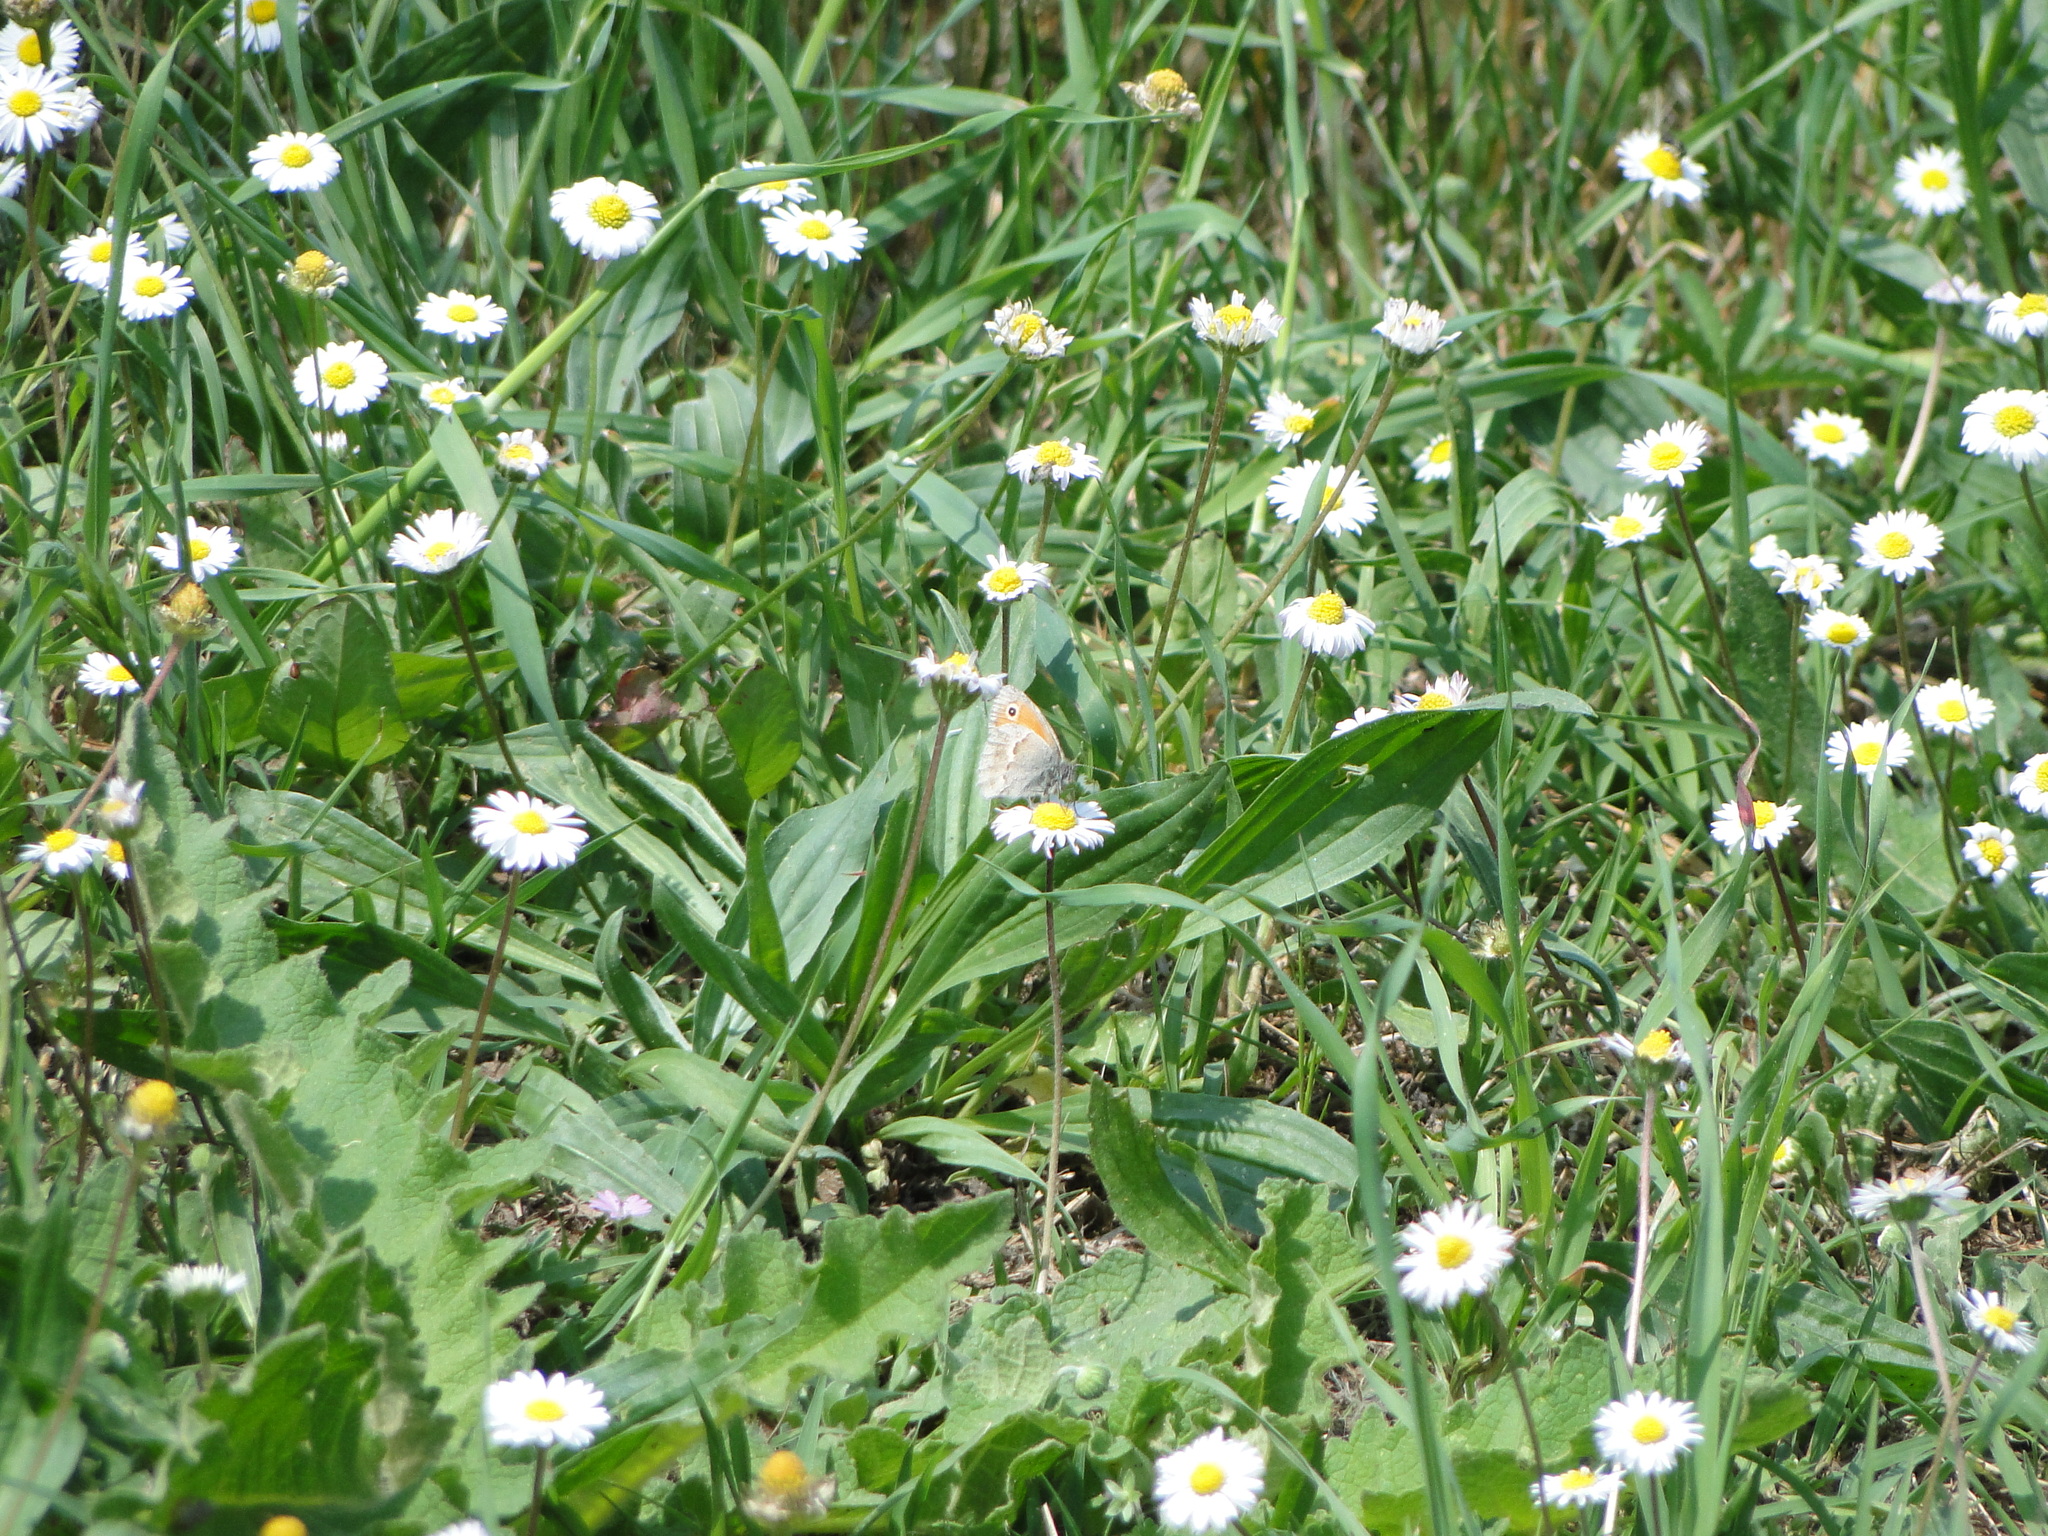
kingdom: Animalia
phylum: Arthropoda
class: Insecta
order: Lepidoptera
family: Nymphalidae
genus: Coenonympha
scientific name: Coenonympha pamphilus
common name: Small heath
